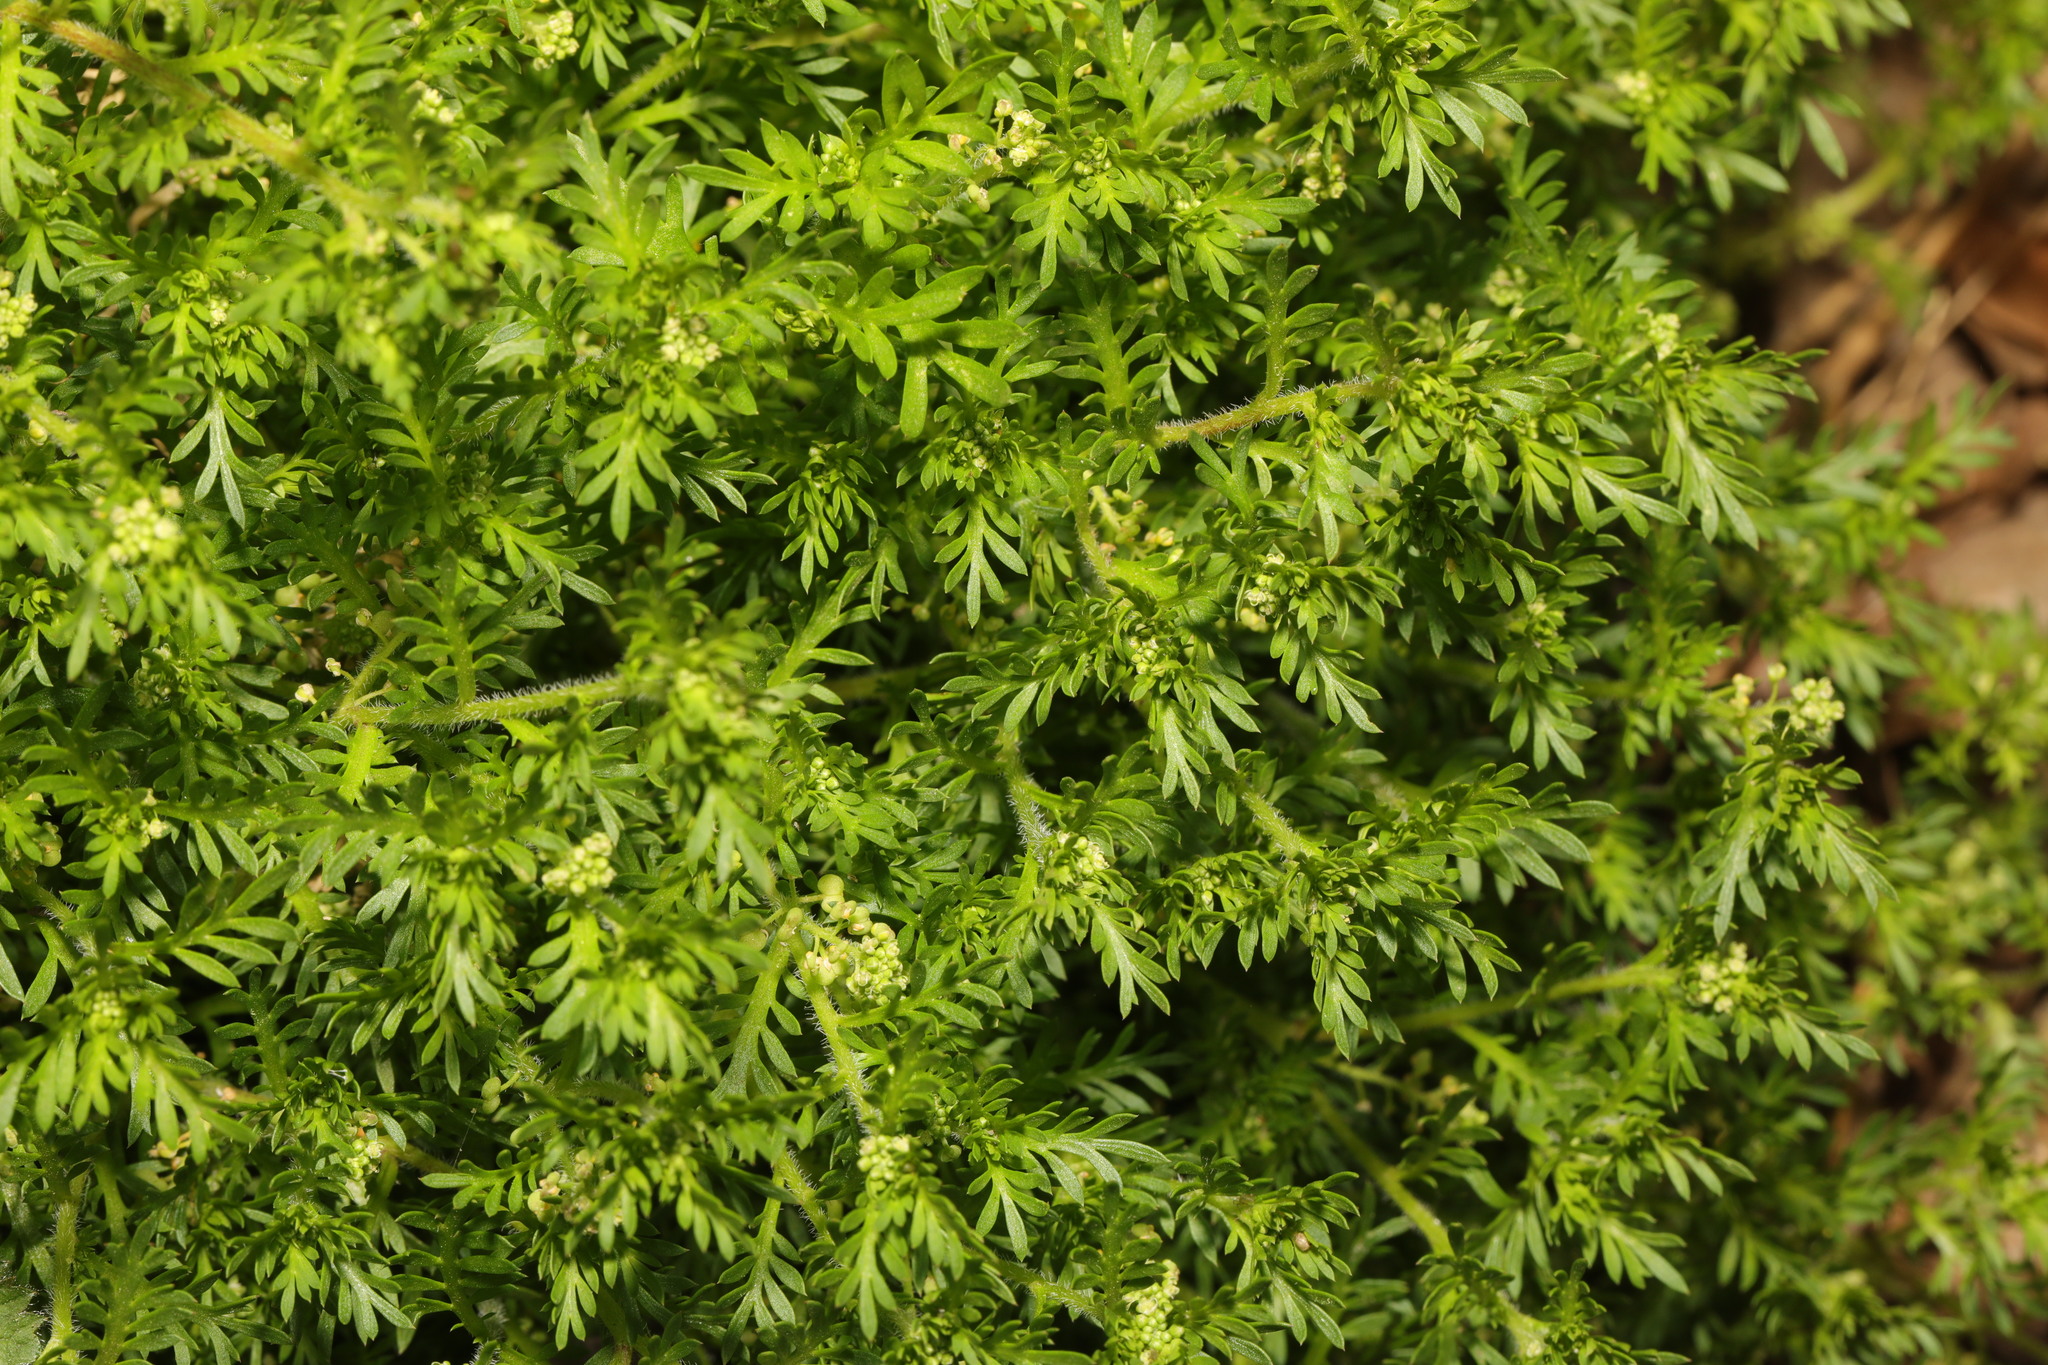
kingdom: Plantae
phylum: Tracheophyta
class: Magnoliopsida
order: Brassicales
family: Brassicaceae
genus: Lepidium
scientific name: Lepidium didymum
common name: Lesser swinecress
